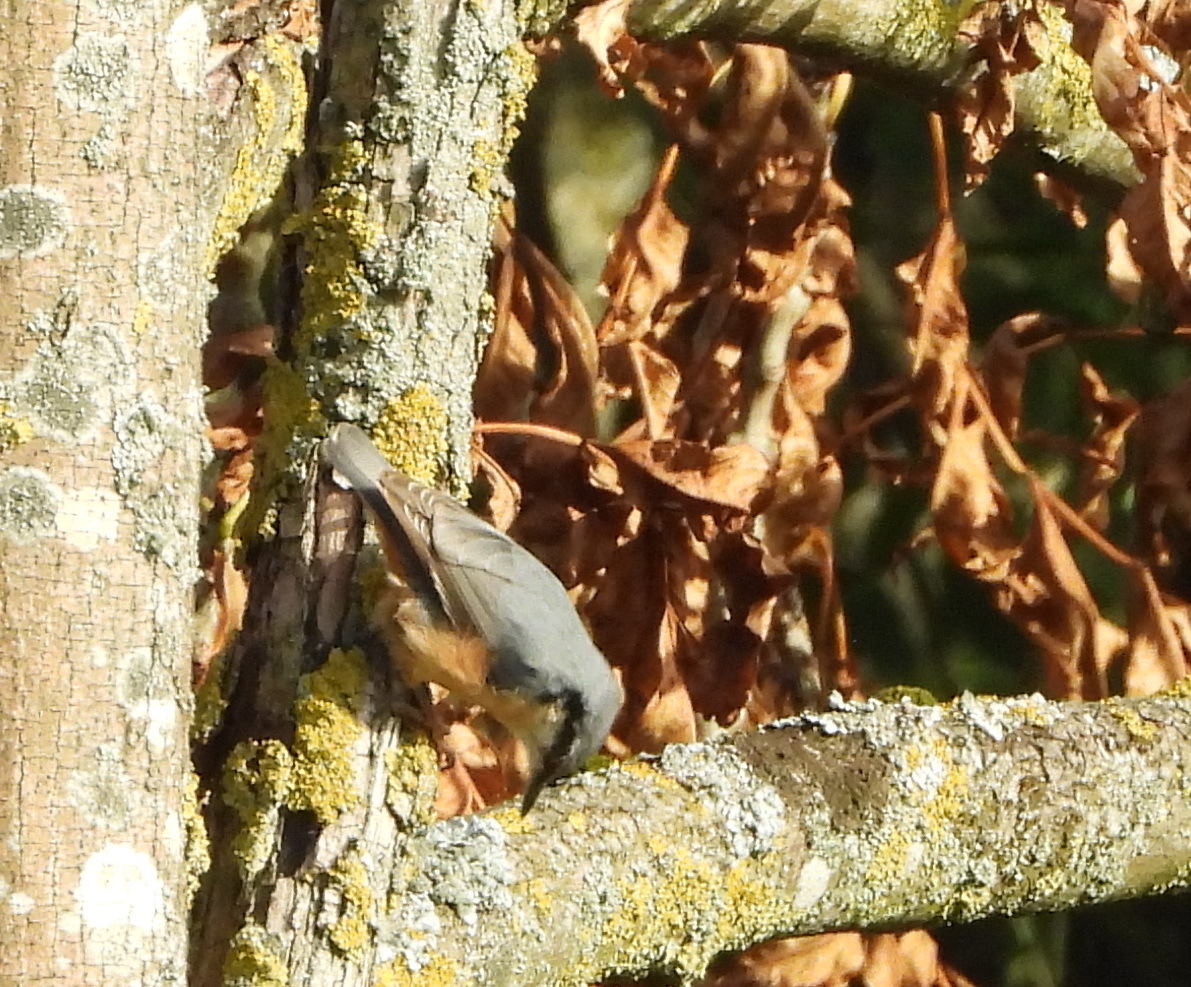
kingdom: Animalia
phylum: Chordata
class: Aves
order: Passeriformes
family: Sittidae
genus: Sitta
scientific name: Sitta europaea
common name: Eurasian nuthatch
